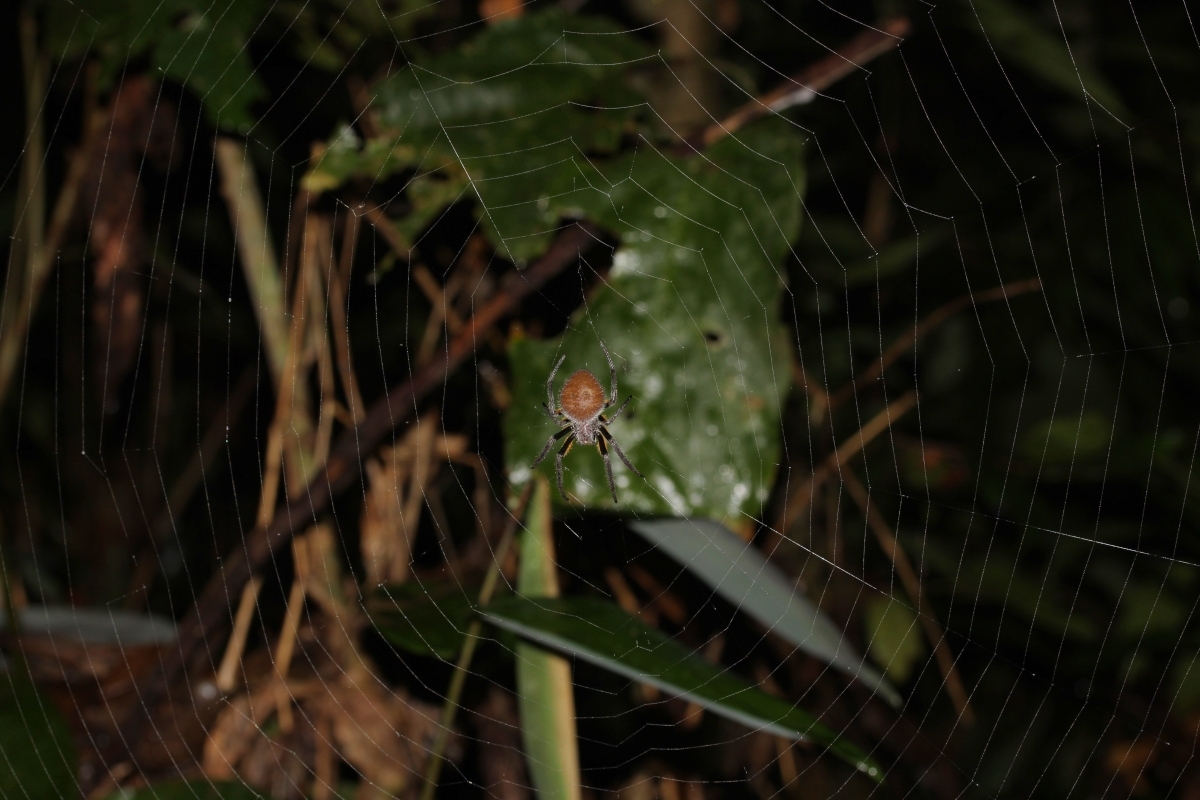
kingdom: Animalia
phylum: Arthropoda
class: Arachnida
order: Araneae
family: Araneidae
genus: Eriophora
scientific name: Eriophora fuliginea
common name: Orb weavers
